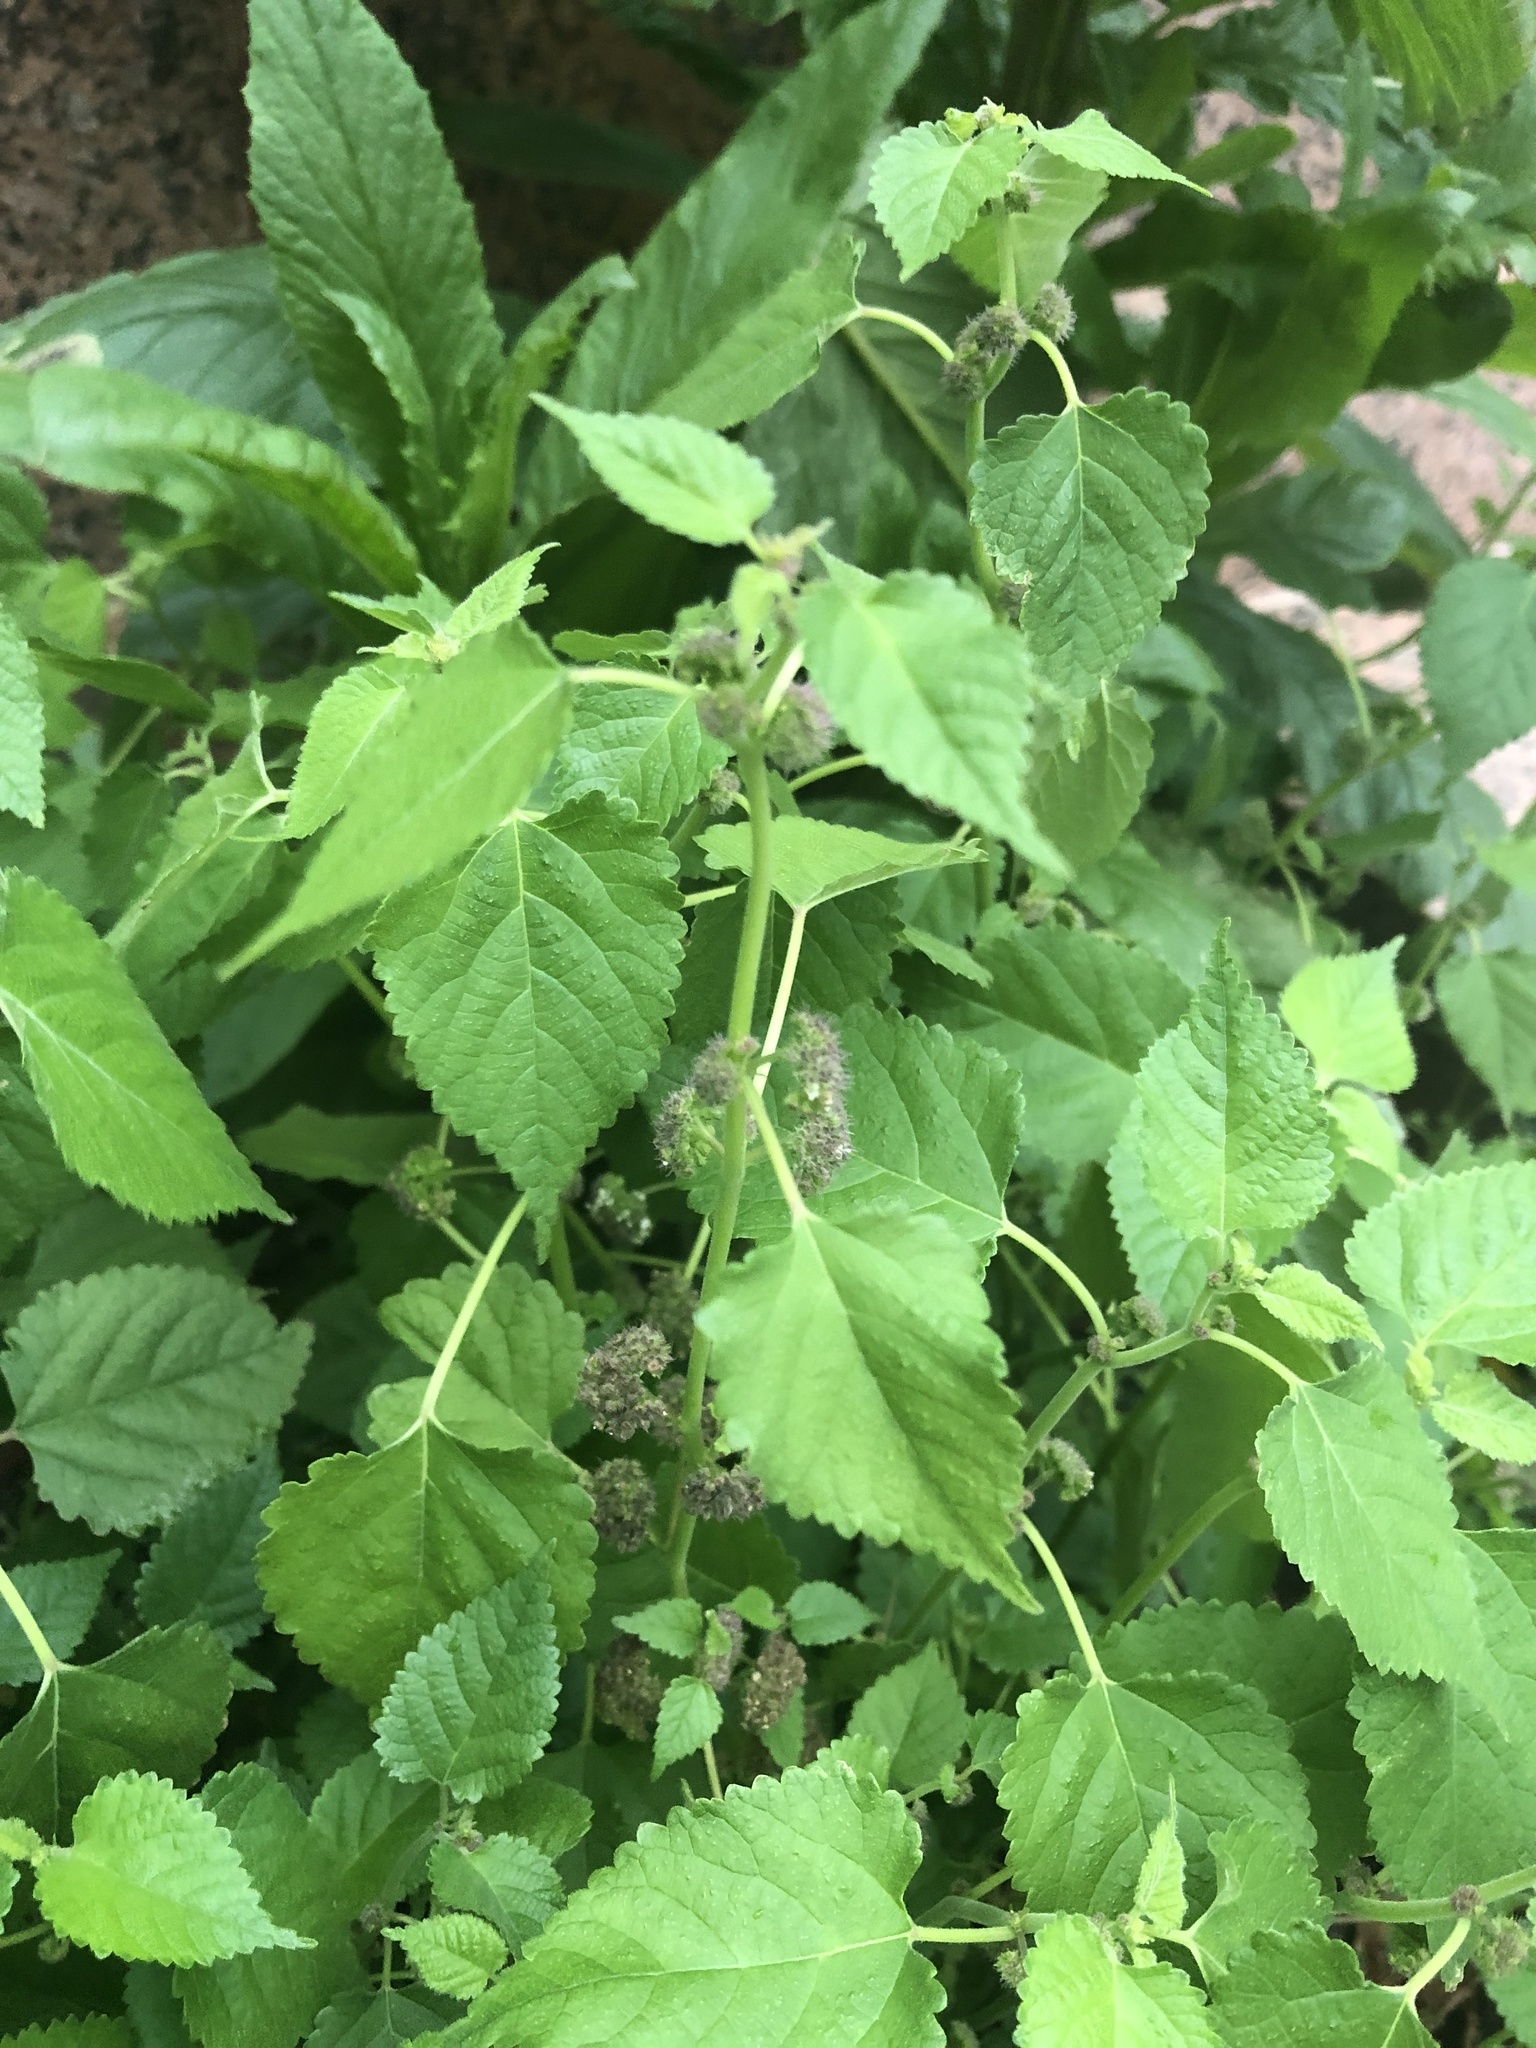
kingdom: Plantae
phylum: Tracheophyta
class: Magnoliopsida
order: Rosales
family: Moraceae
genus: Fatoua
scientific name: Fatoua villosa
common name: Hairy crabweed
